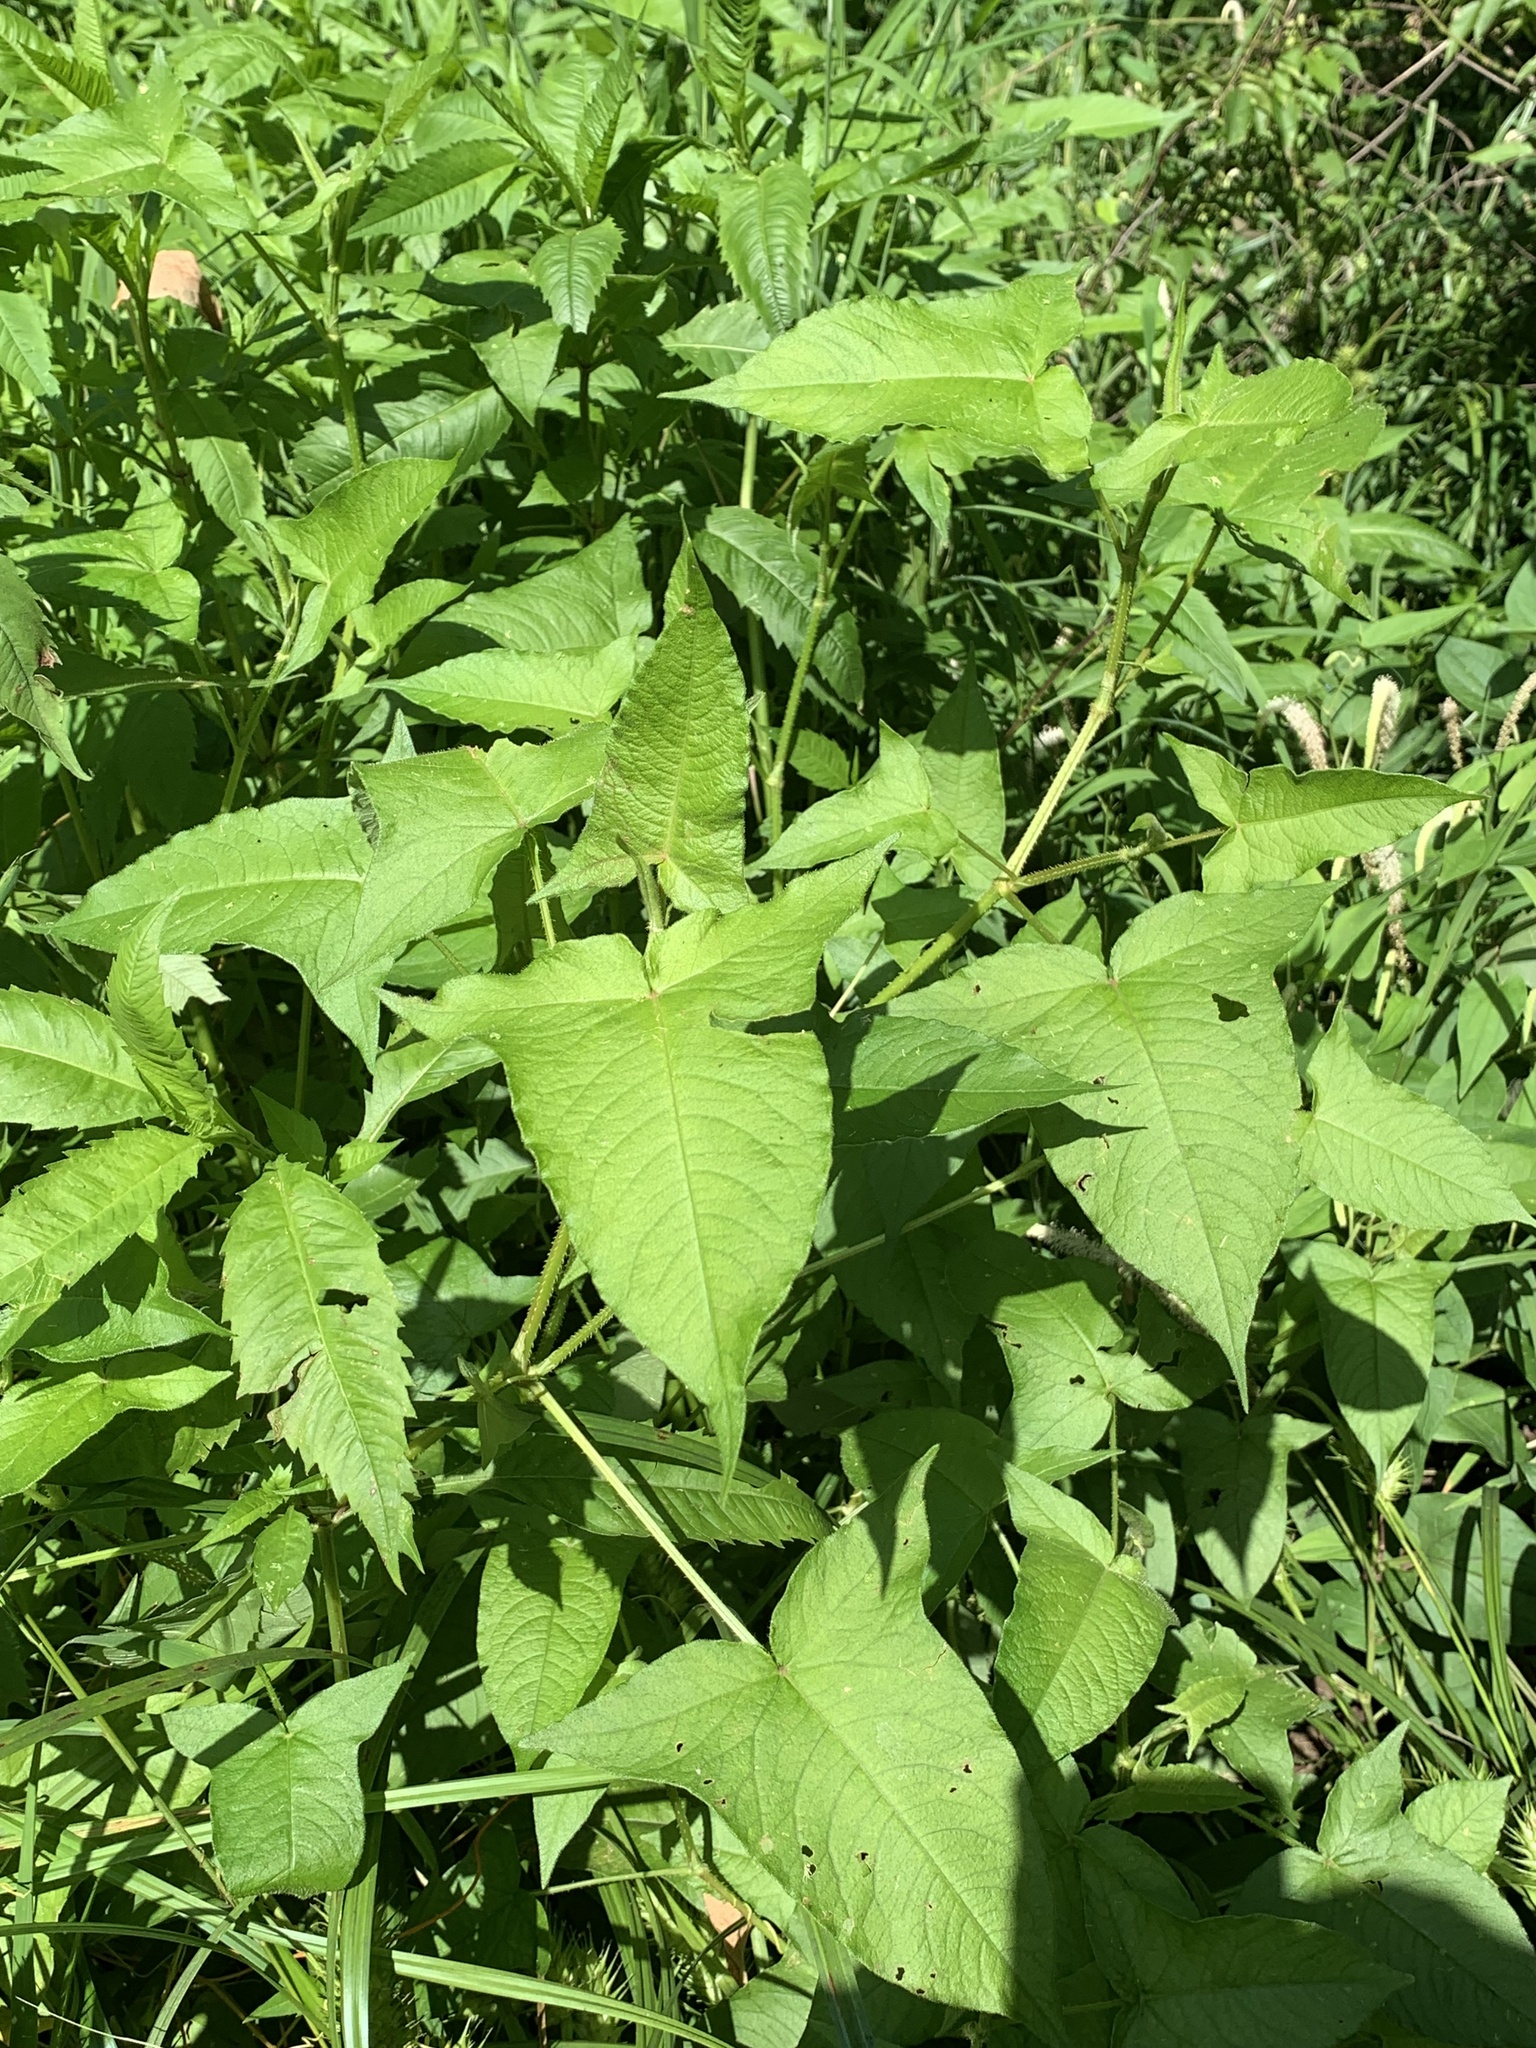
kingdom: Plantae
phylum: Tracheophyta
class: Magnoliopsida
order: Caryophyllales
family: Polygonaceae
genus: Persicaria
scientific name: Persicaria arifolia
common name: Halberd-leaved tear-thumb
